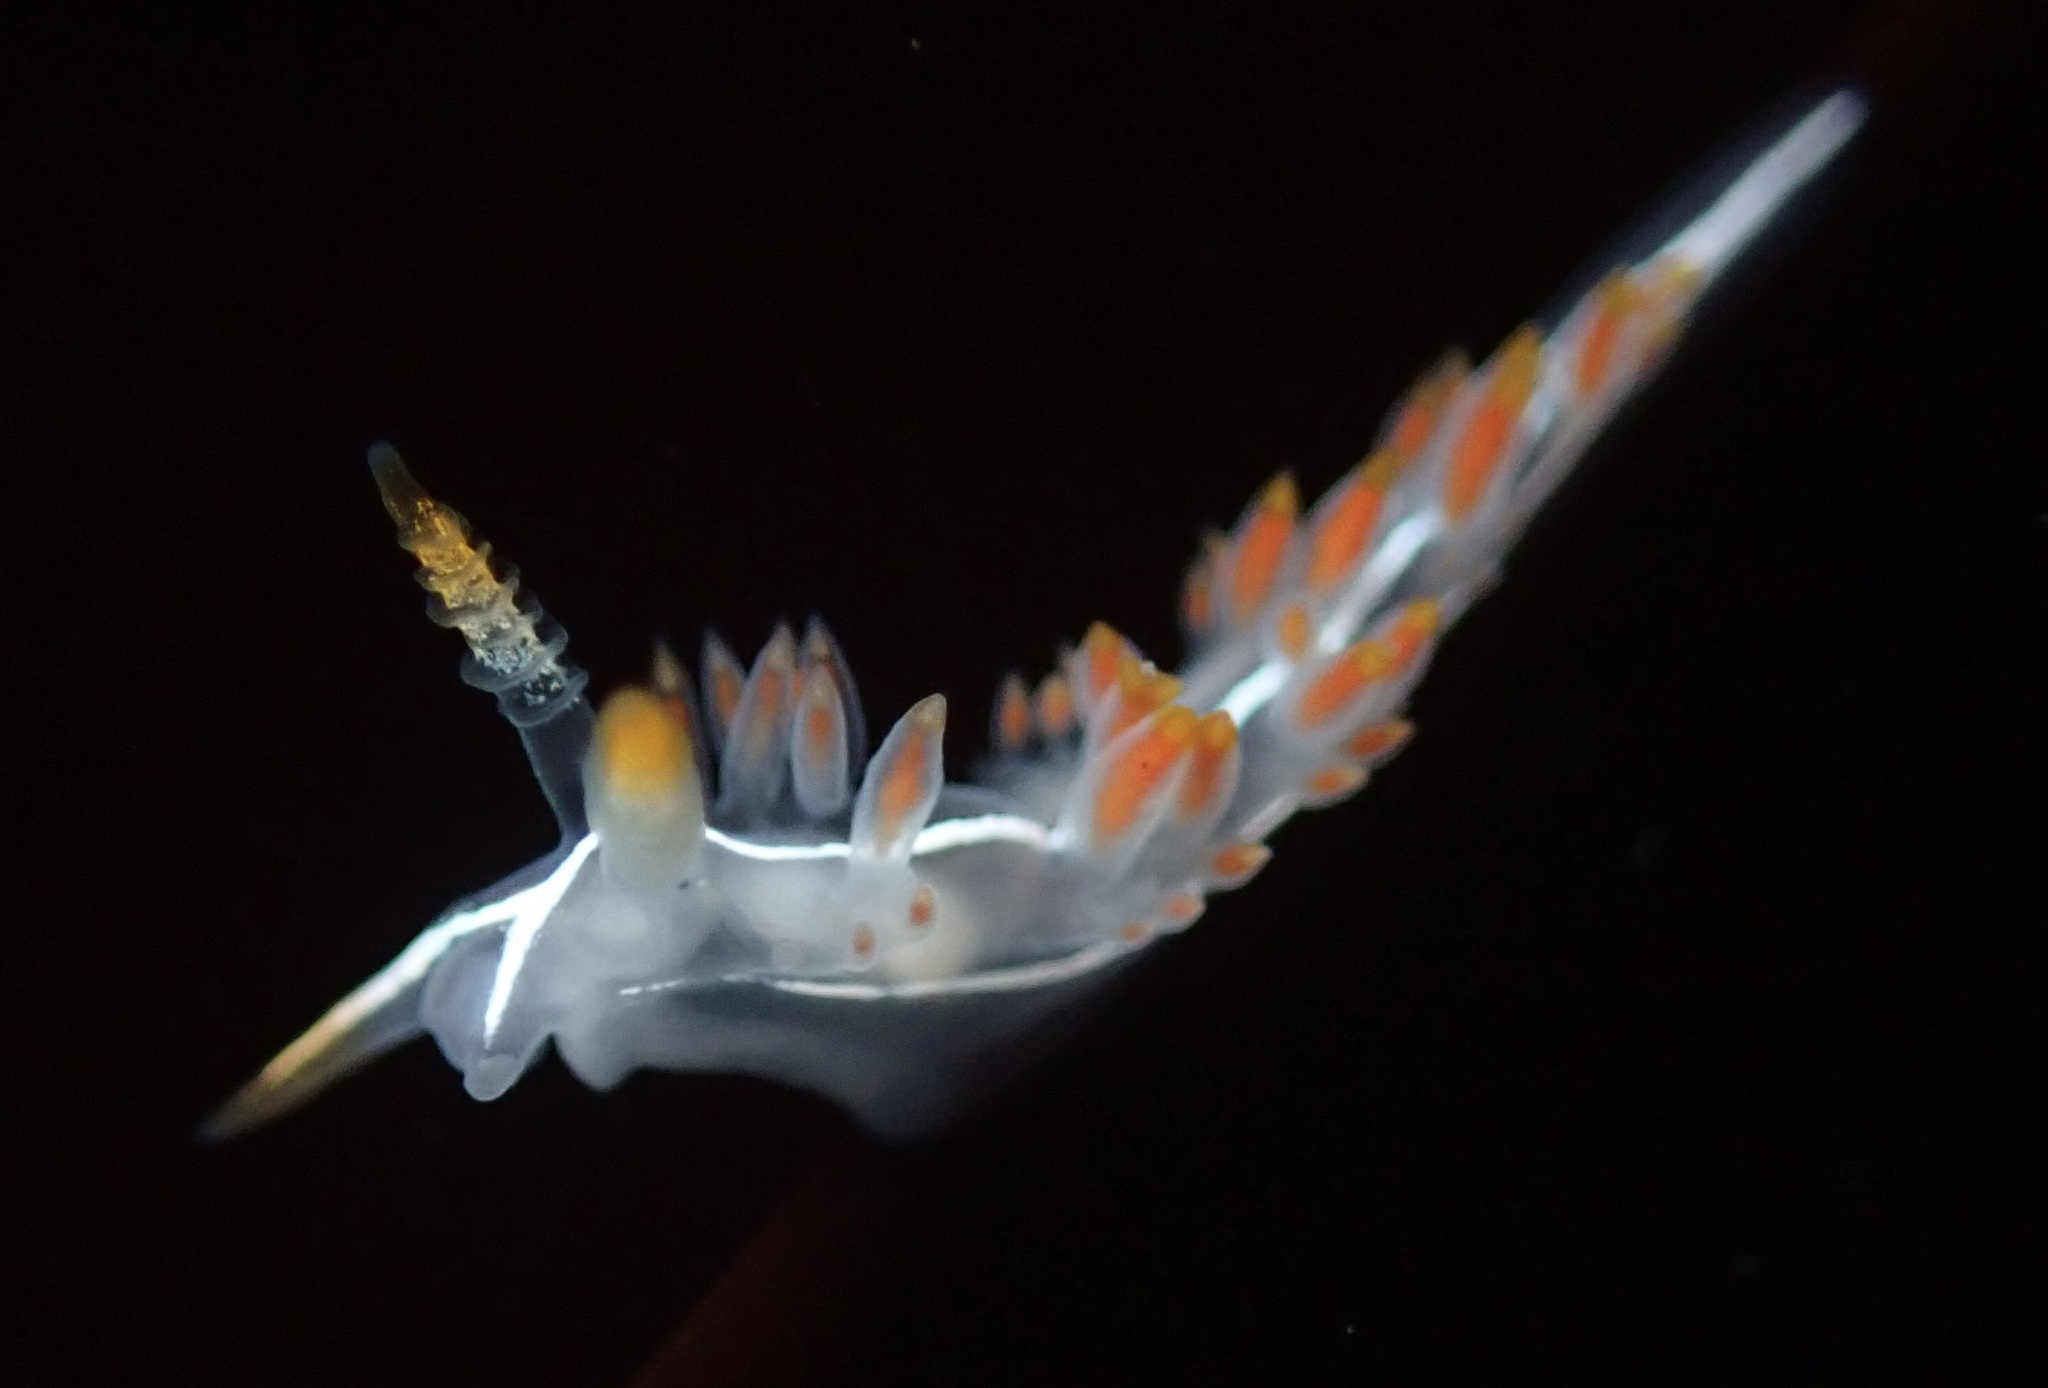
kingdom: Animalia
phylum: Mollusca
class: Gastropoda
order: Nudibranchia
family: Coryphellidae
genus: Coryphella
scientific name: Coryphella trilineata
